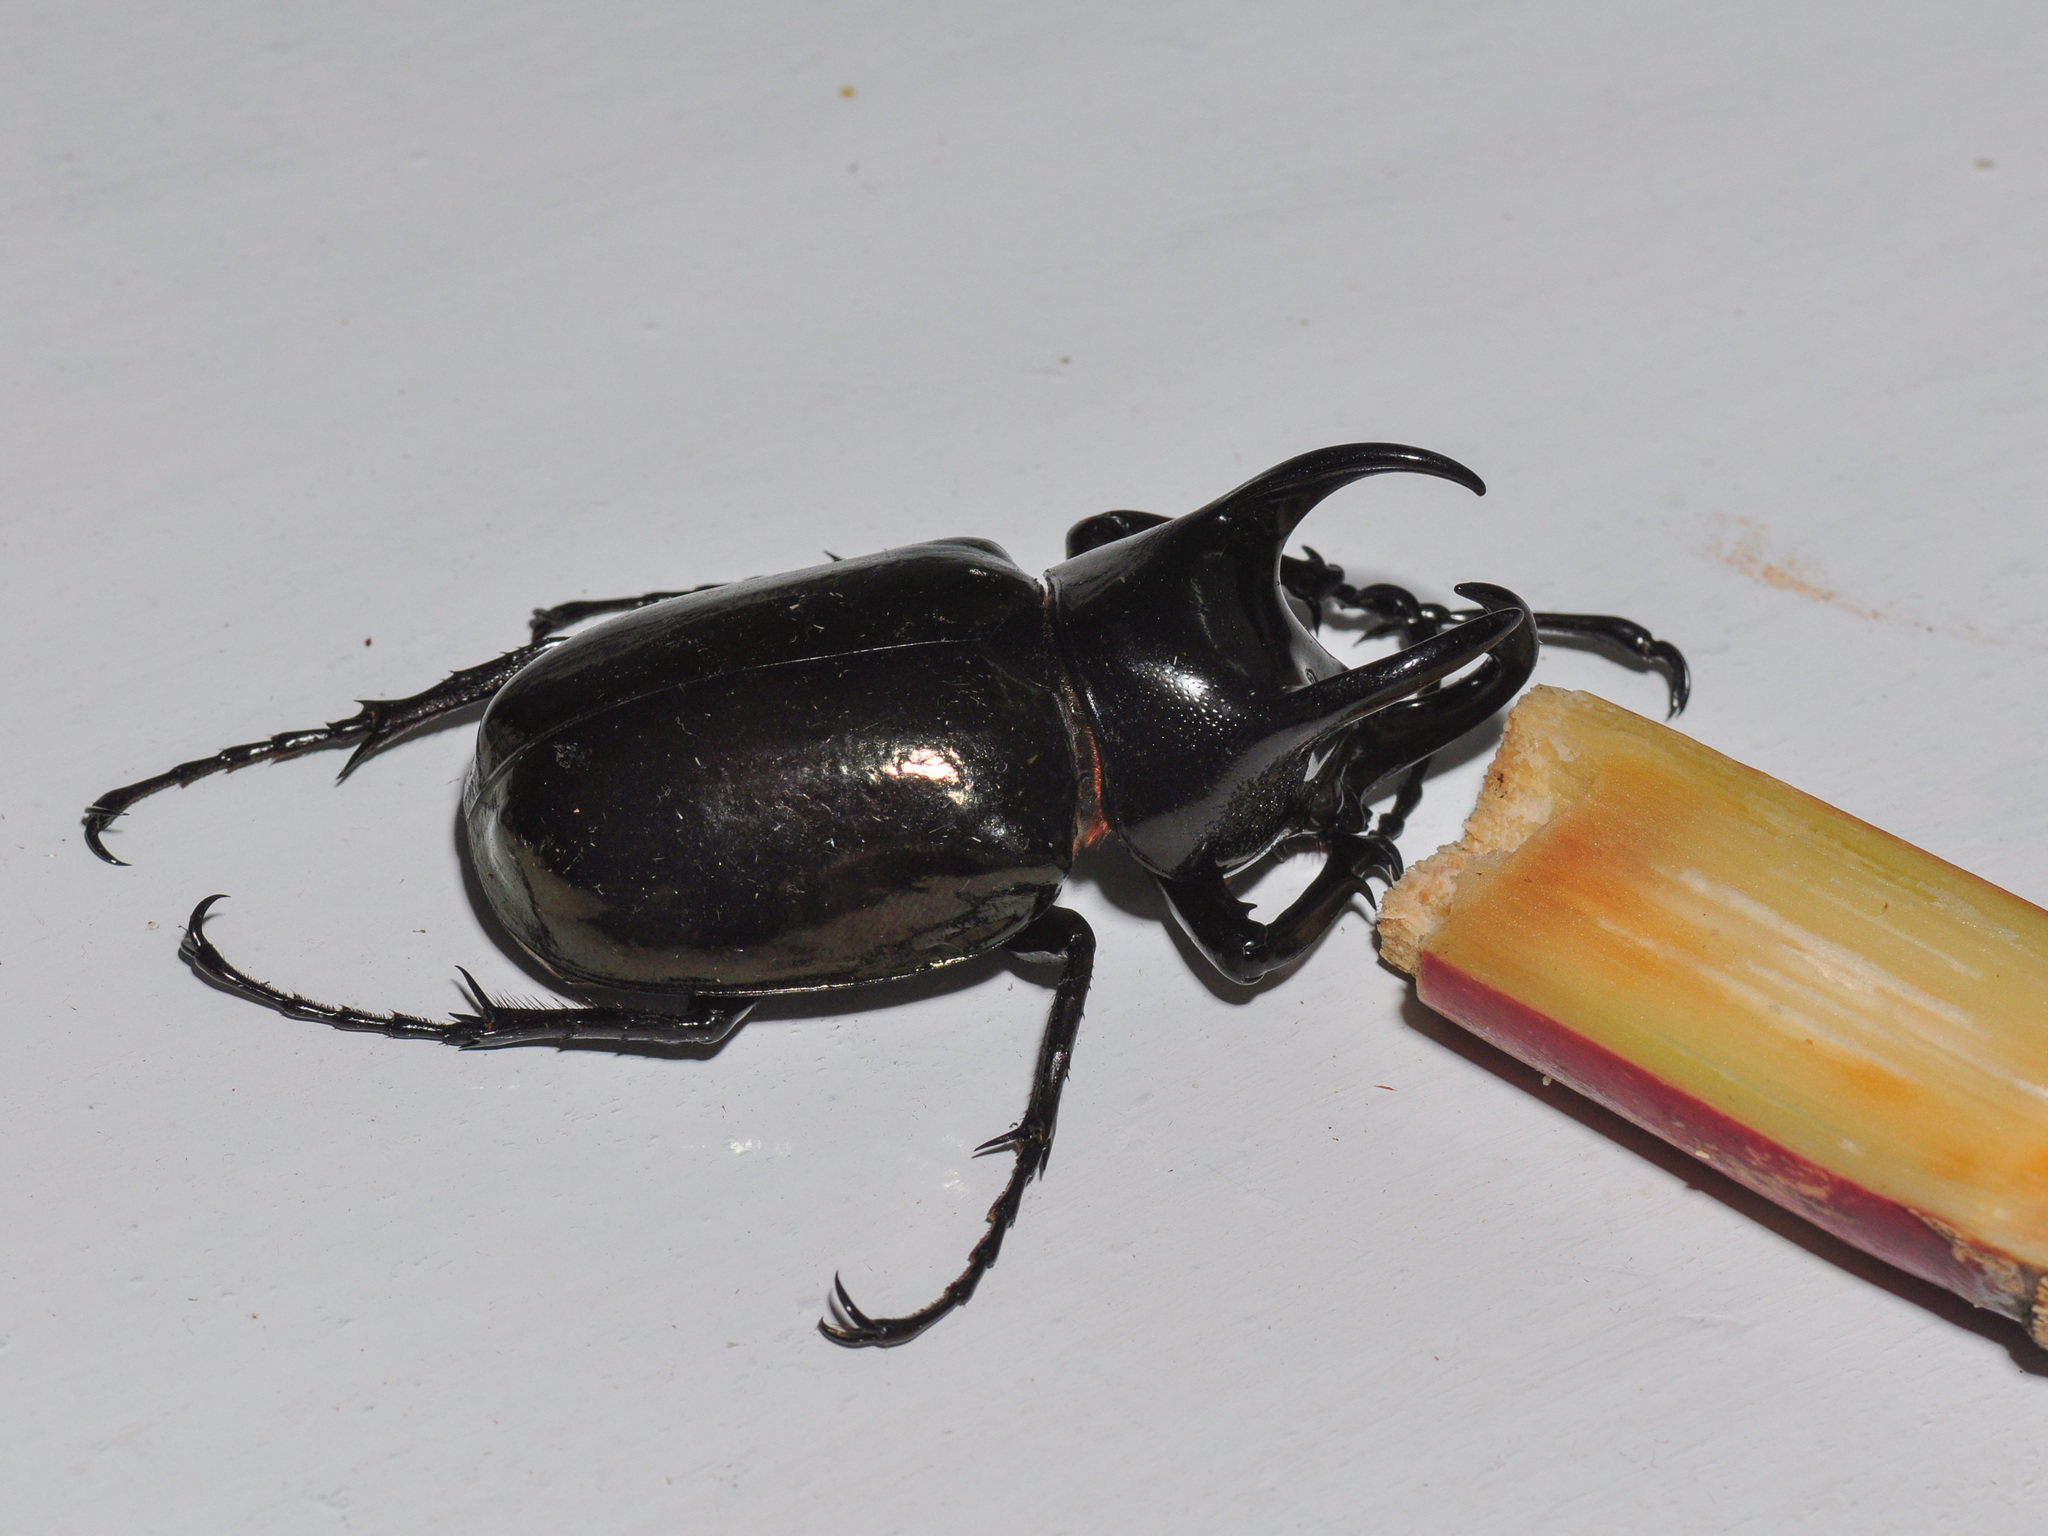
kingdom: Animalia
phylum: Arthropoda
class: Insecta
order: Coleoptera
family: Scarabaeidae
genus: Chalcosoma
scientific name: Chalcosoma chiron
